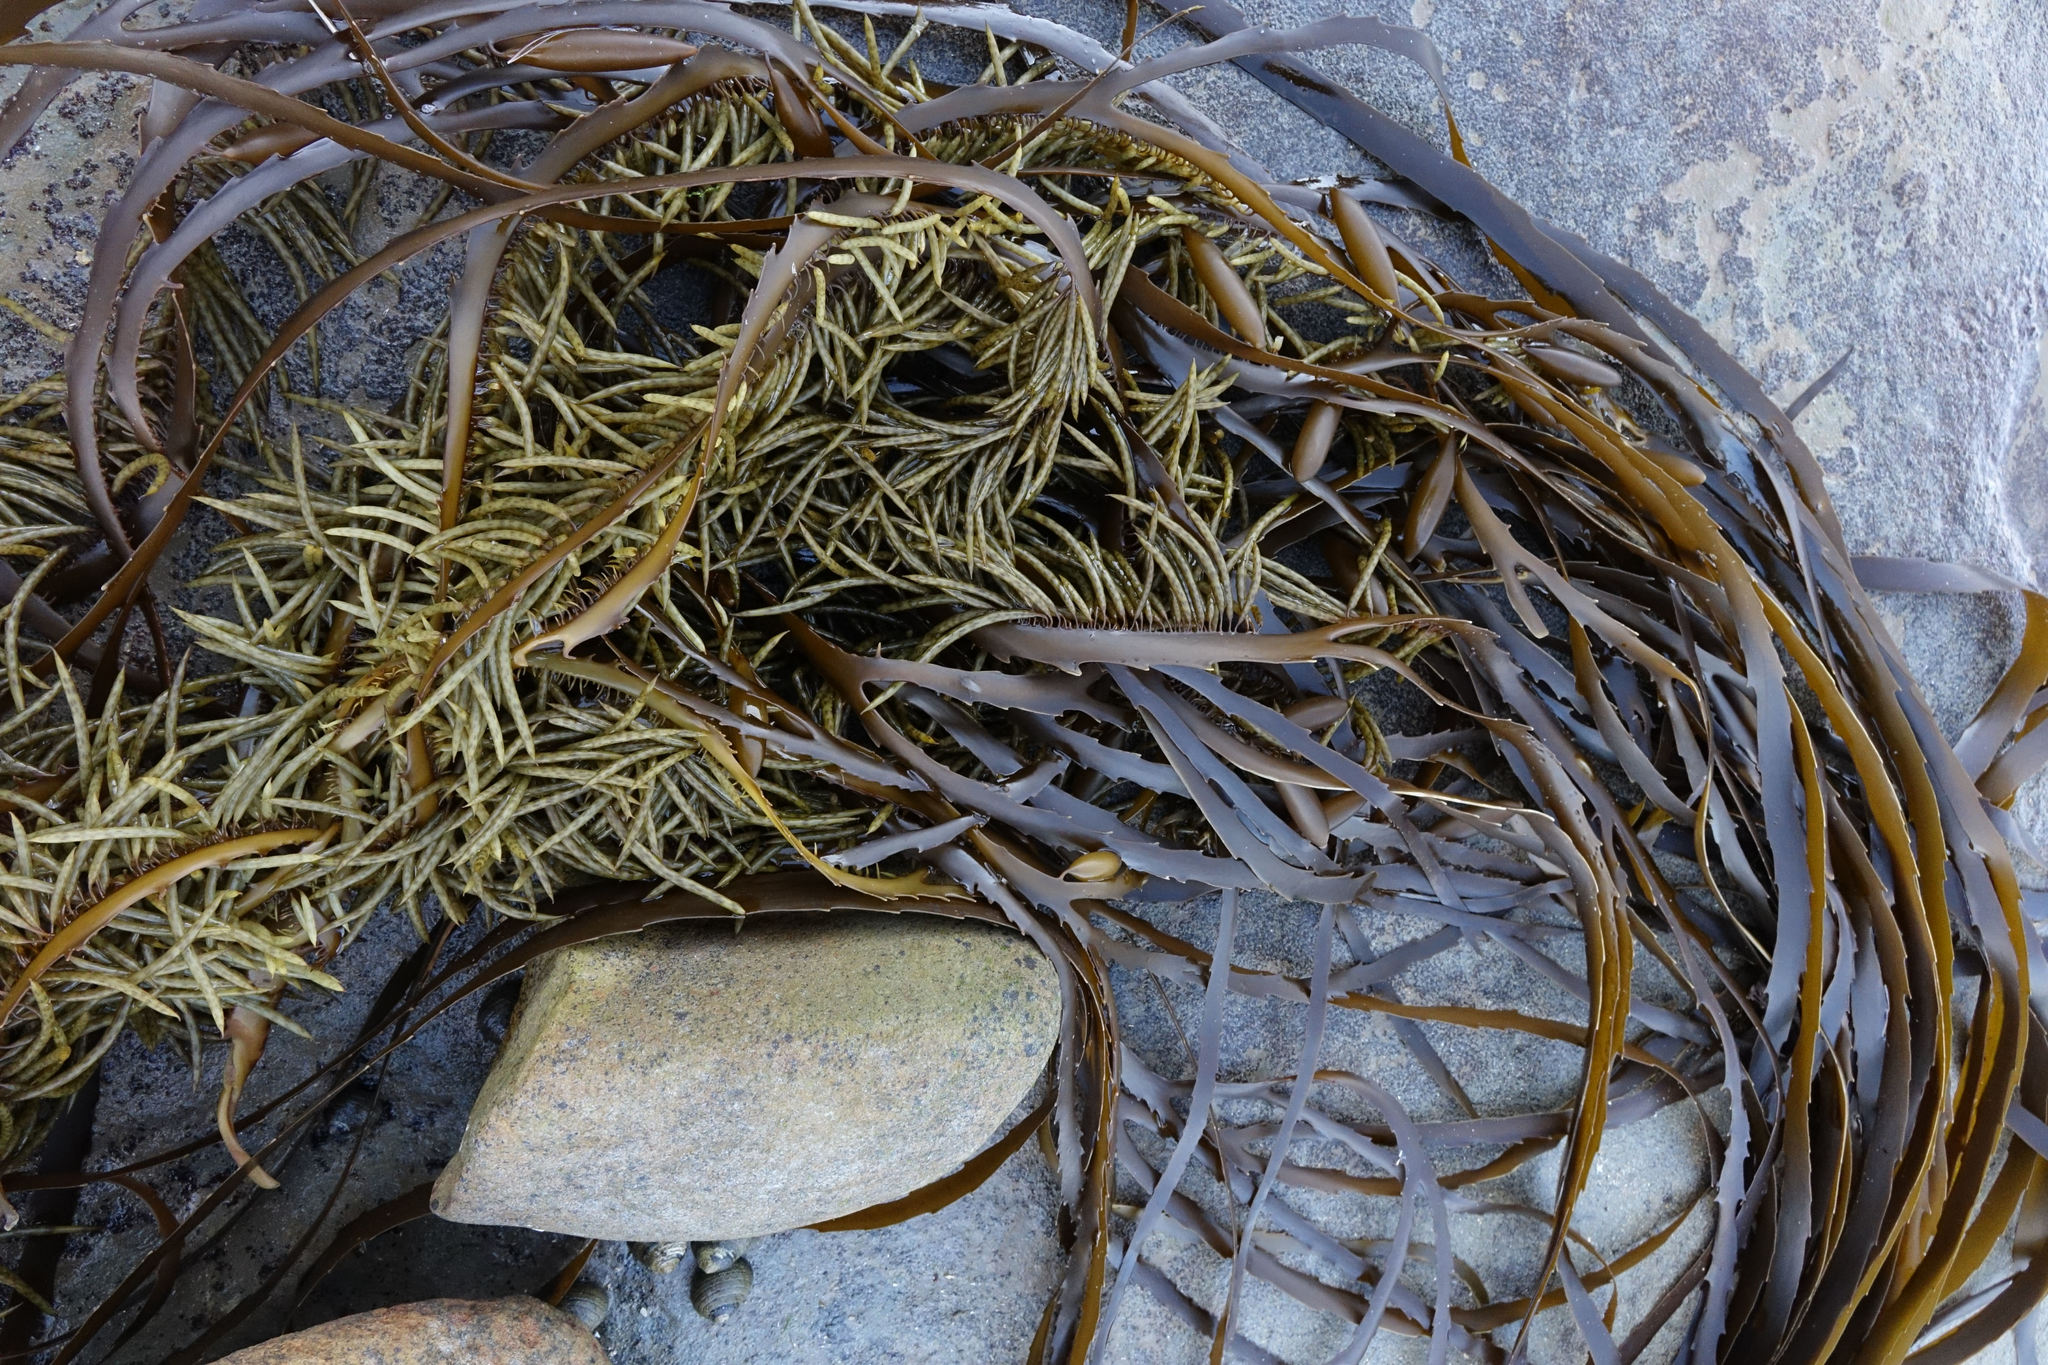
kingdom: Chromista
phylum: Ochrophyta
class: Phaeophyceae
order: Fucales
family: Seirococcaceae
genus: Marginariella
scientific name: Marginariella urvilliana
